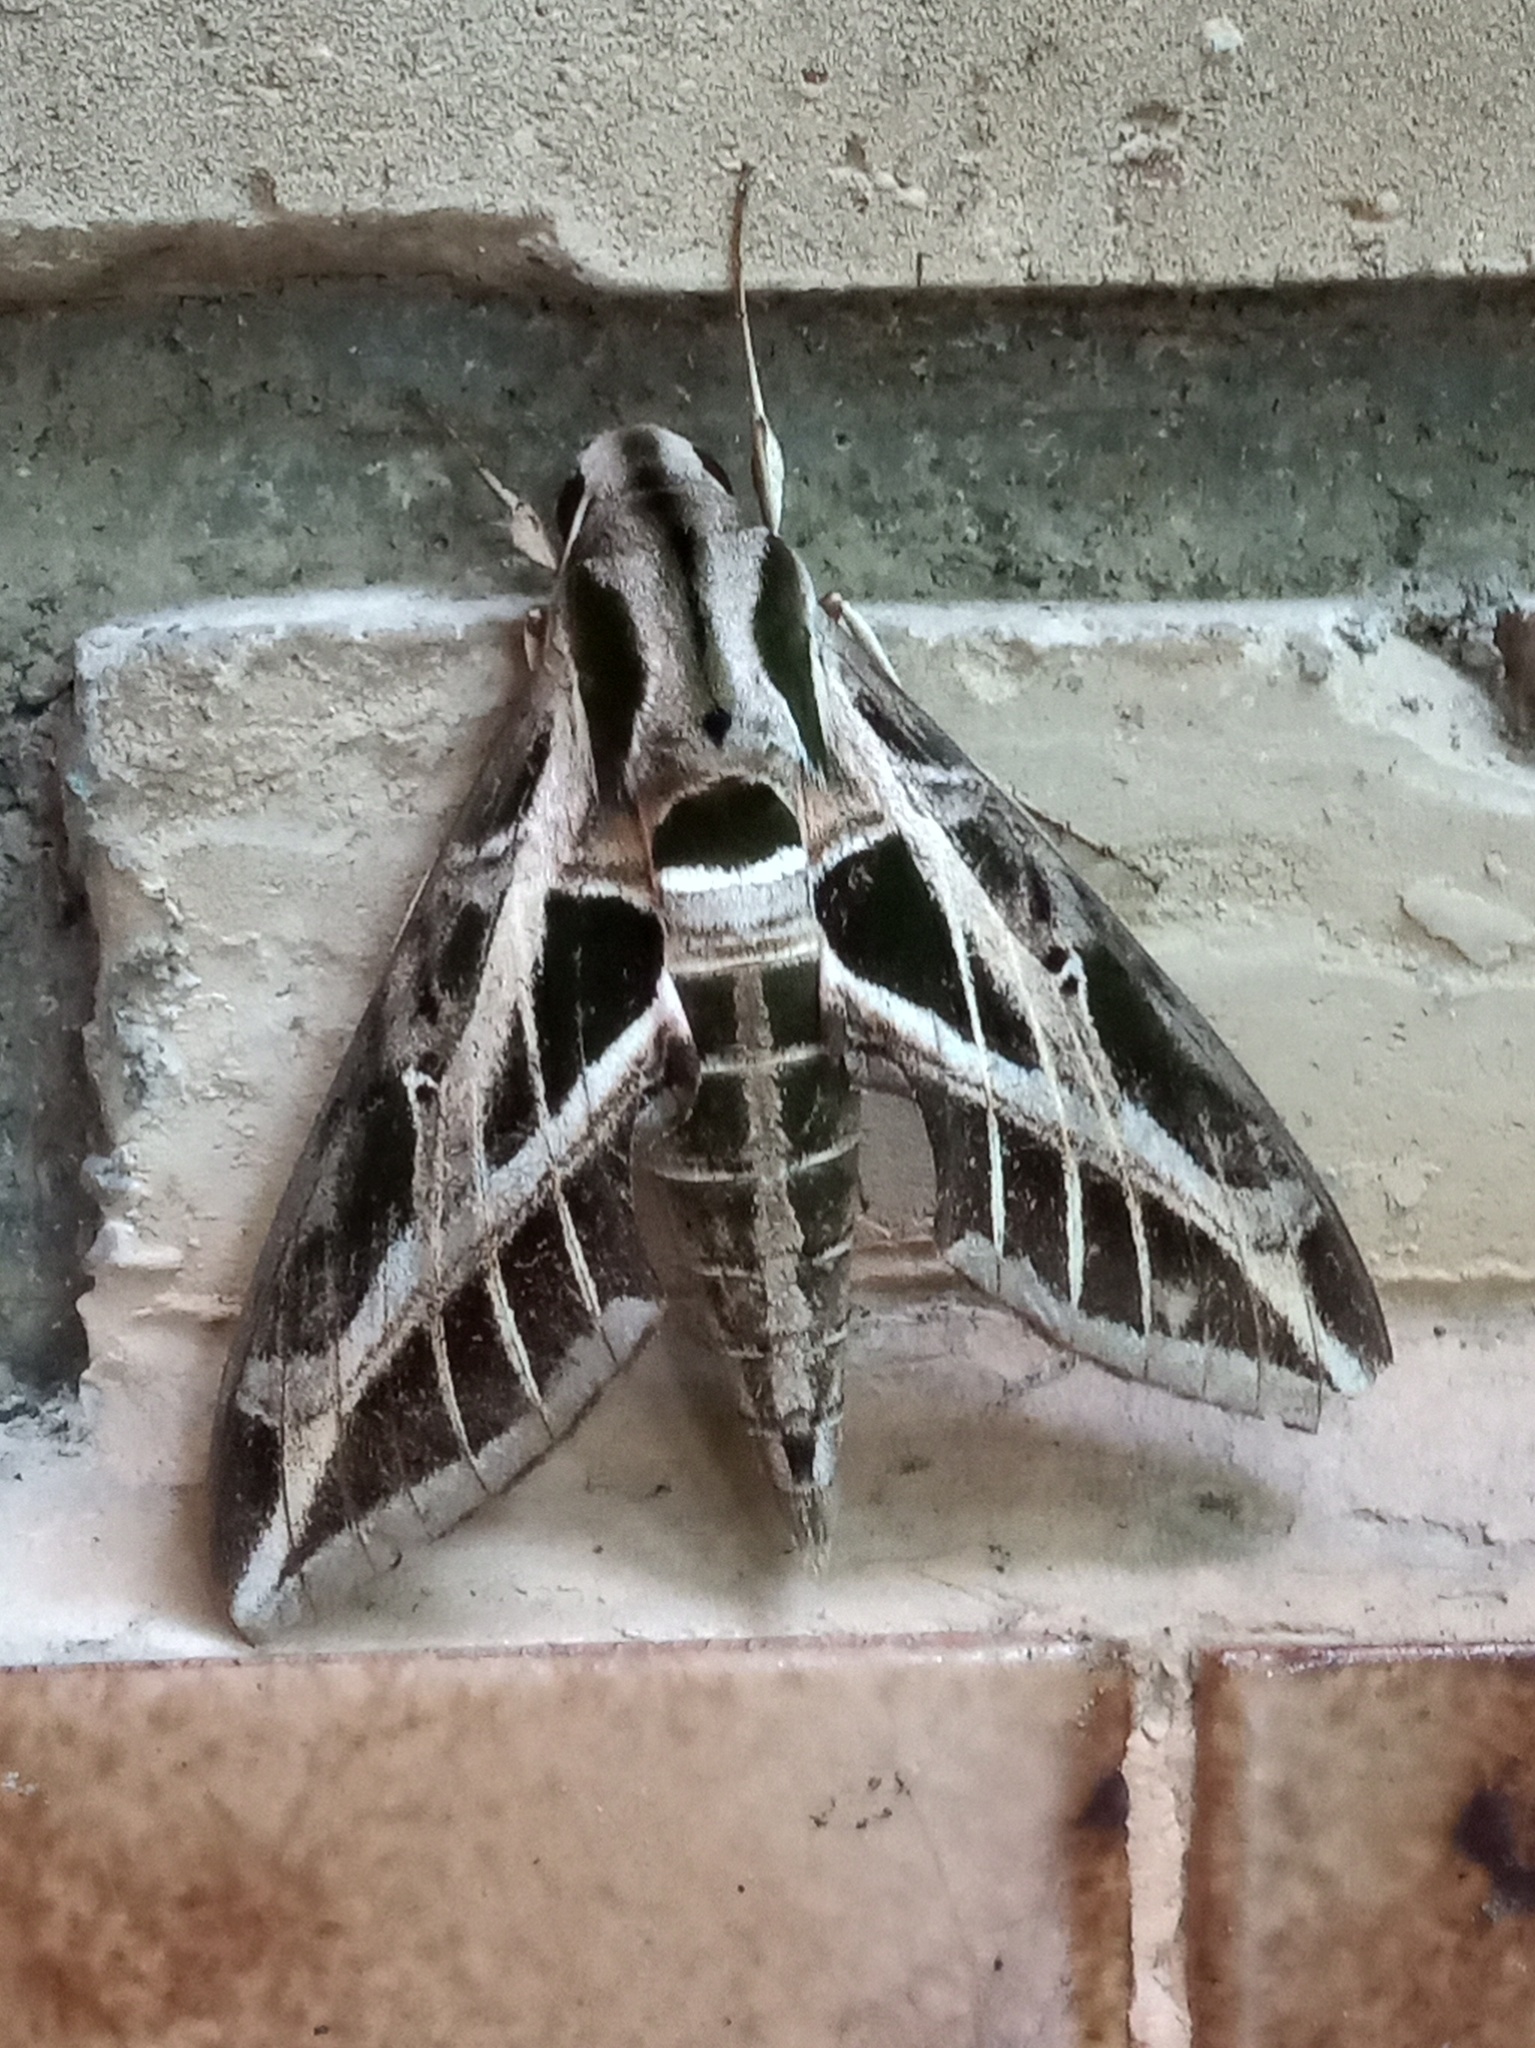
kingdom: Animalia
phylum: Arthropoda
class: Insecta
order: Lepidoptera
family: Sphingidae
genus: Eumorpha
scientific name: Eumorpha vitis
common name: Vine sphinx
